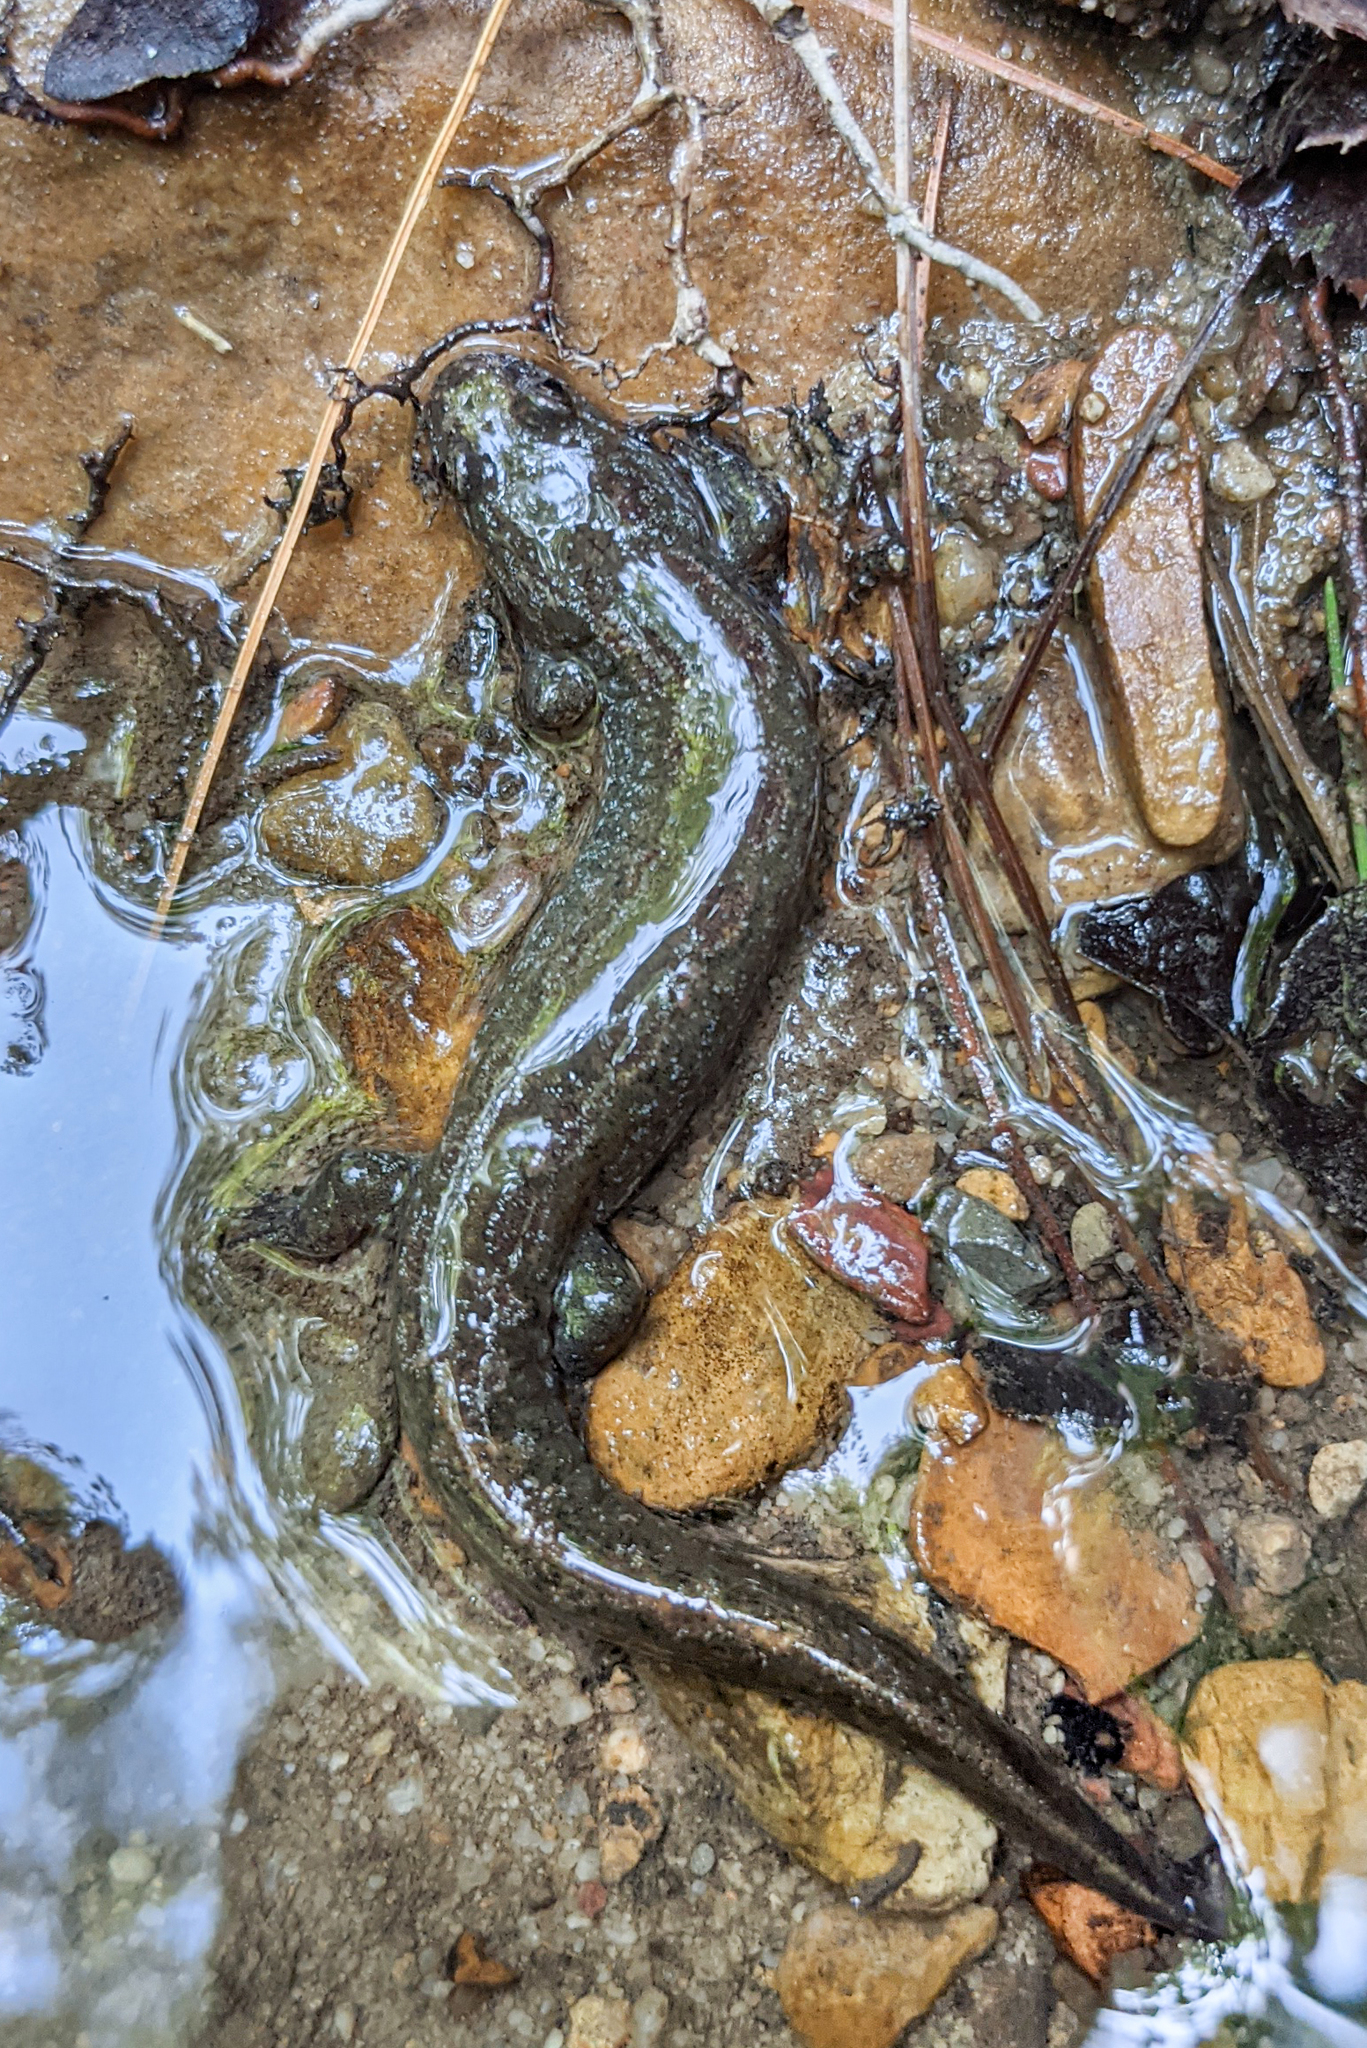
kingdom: Animalia
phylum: Chordata
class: Amphibia
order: Caudata
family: Plethodontidae
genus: Desmognathus
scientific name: Desmognathus fuscus
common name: Northern dusky salamander
